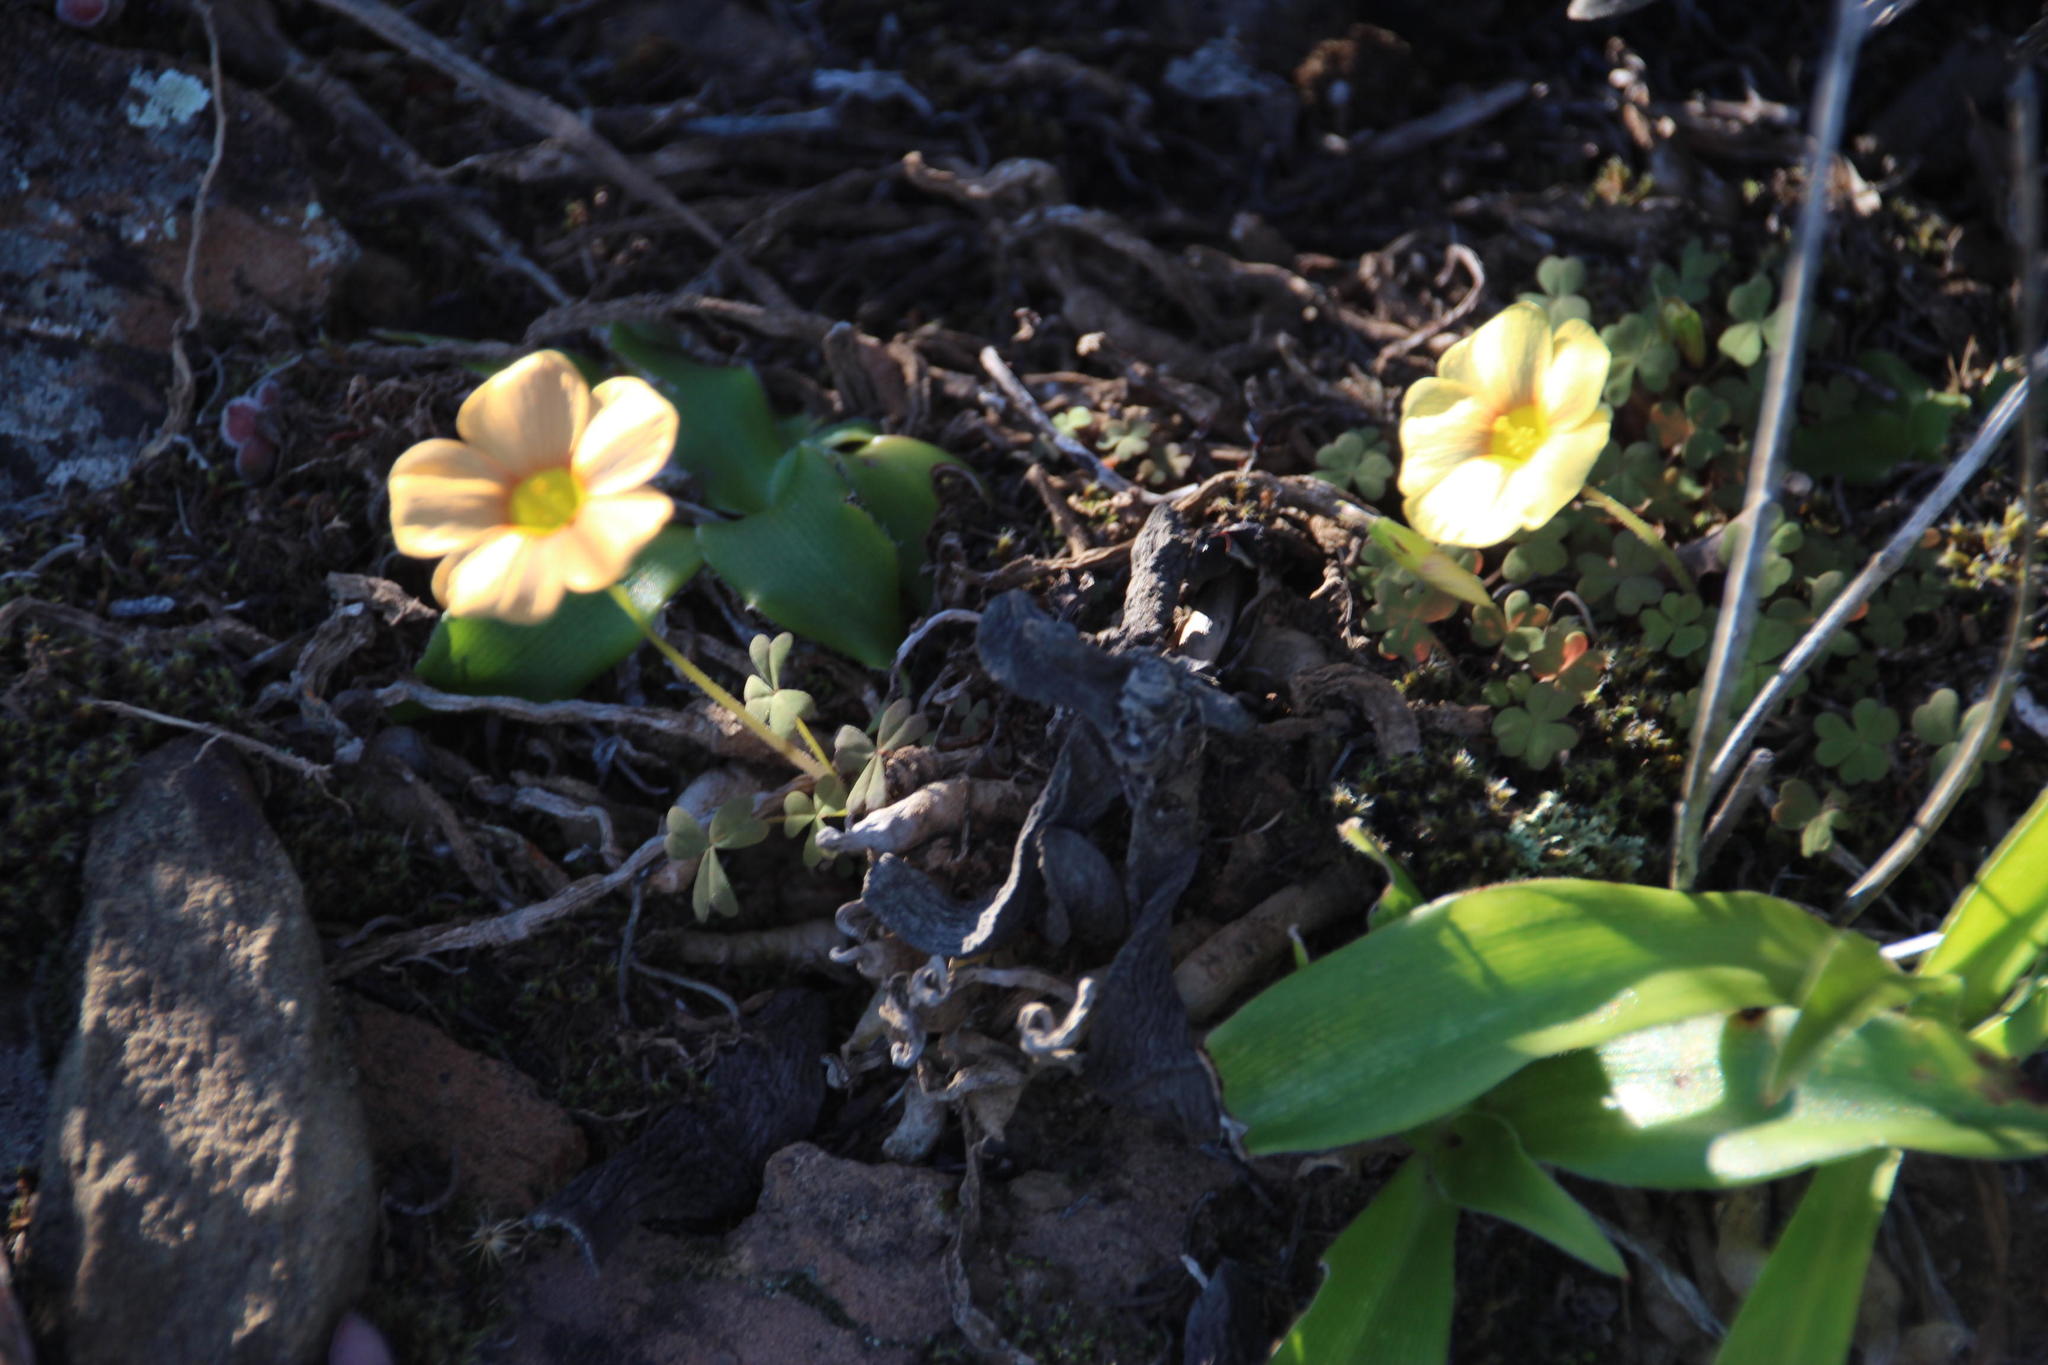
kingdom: Plantae
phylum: Tracheophyta
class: Magnoliopsida
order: Oxalidales
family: Oxalidaceae
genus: Oxalis
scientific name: Oxalis obtusa
